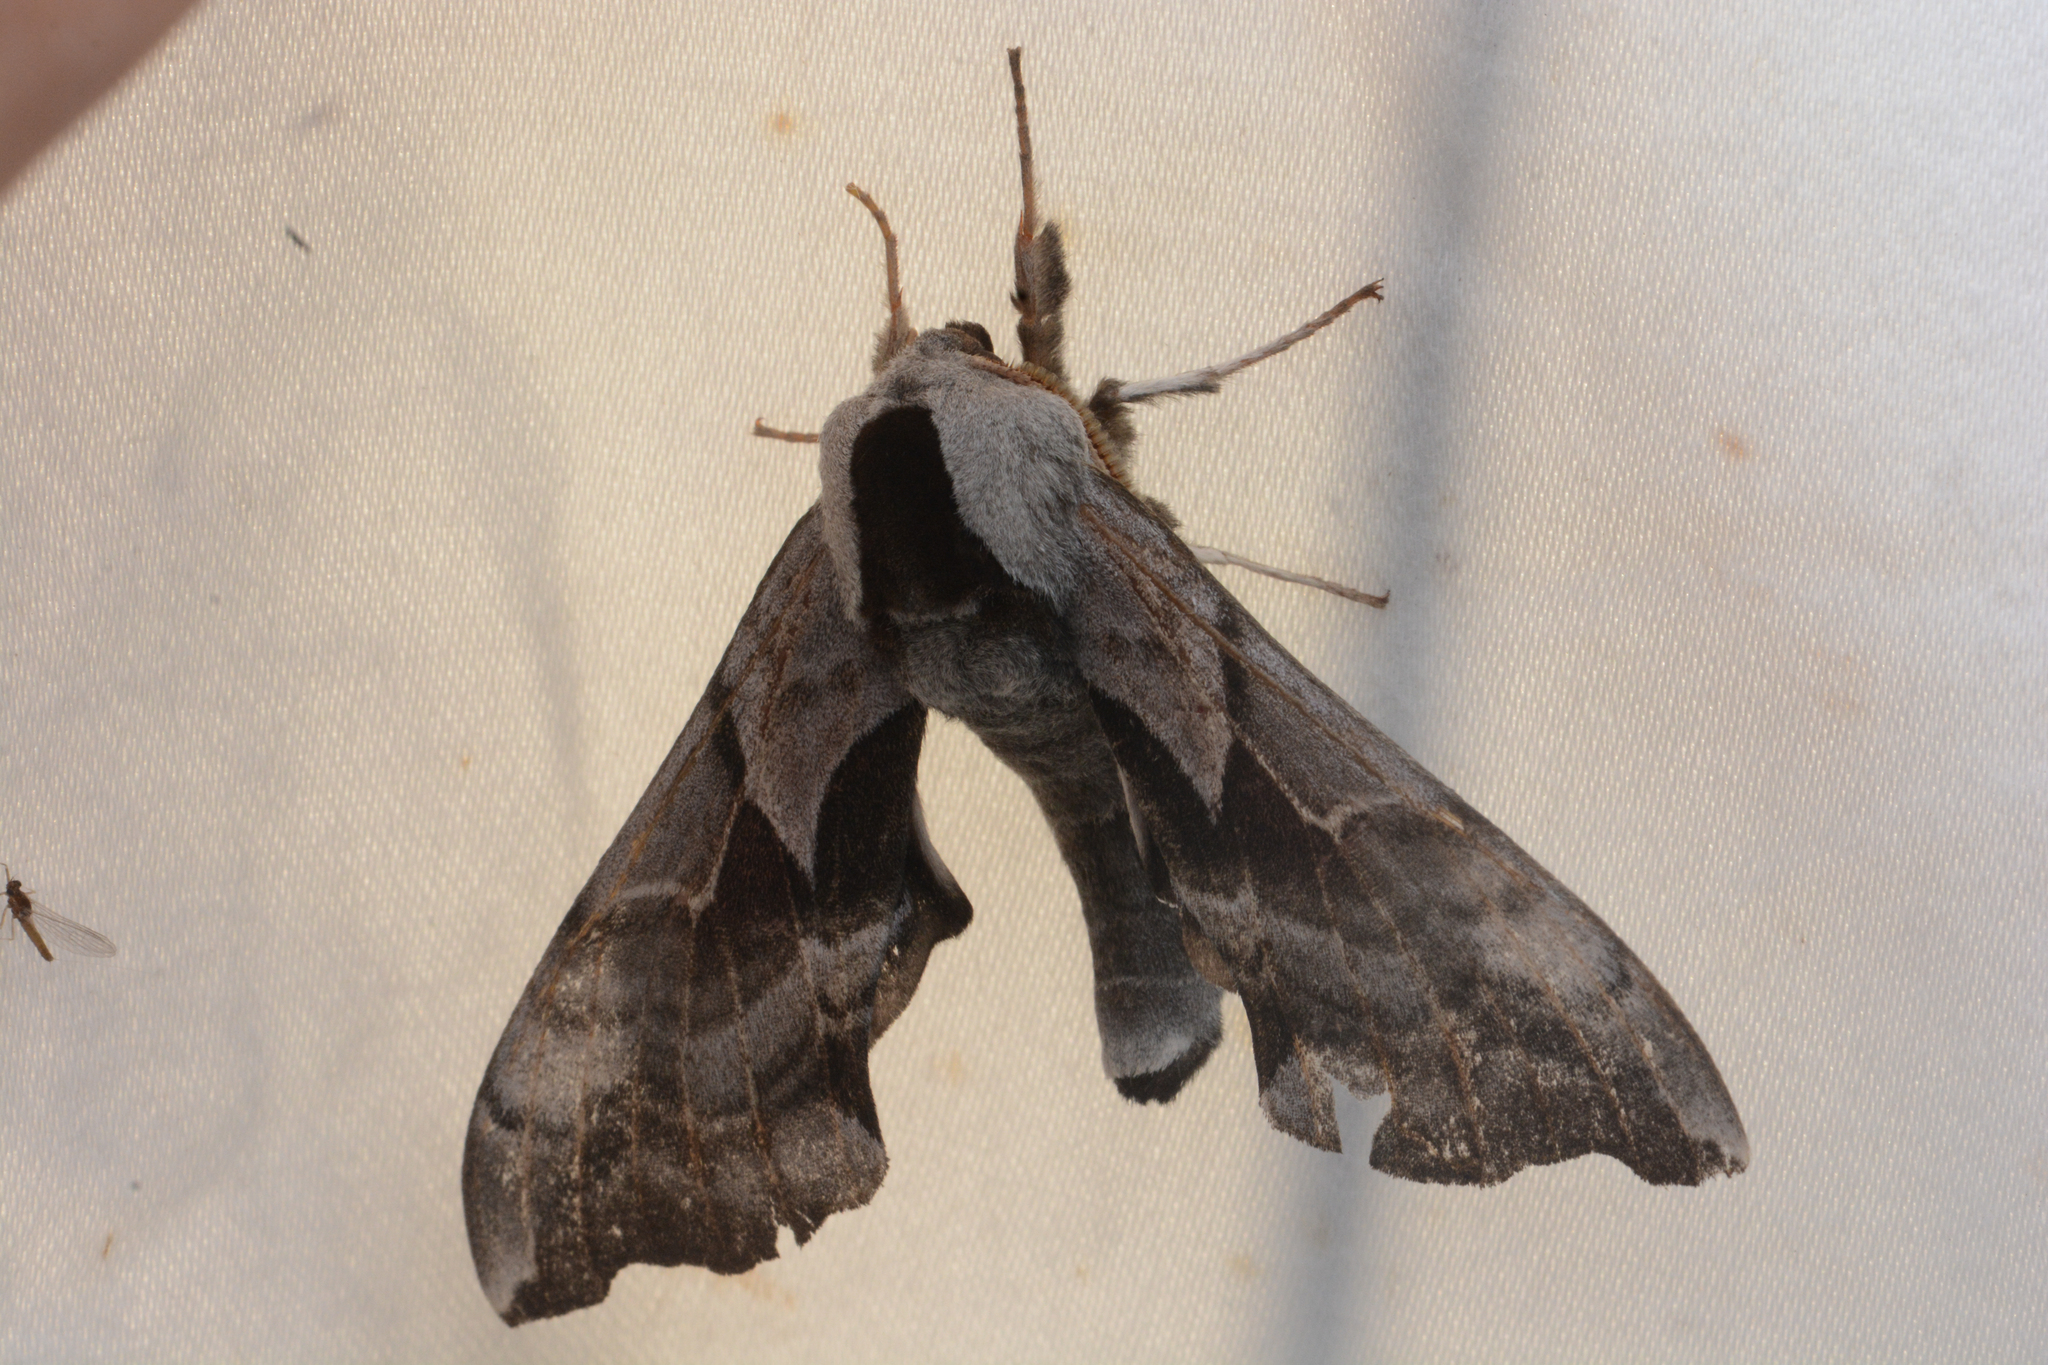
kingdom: Animalia
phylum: Arthropoda
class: Insecta
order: Lepidoptera
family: Sphingidae
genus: Smerinthus
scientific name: Smerinthus cerisyi
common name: Cerisy's sphinx moth
